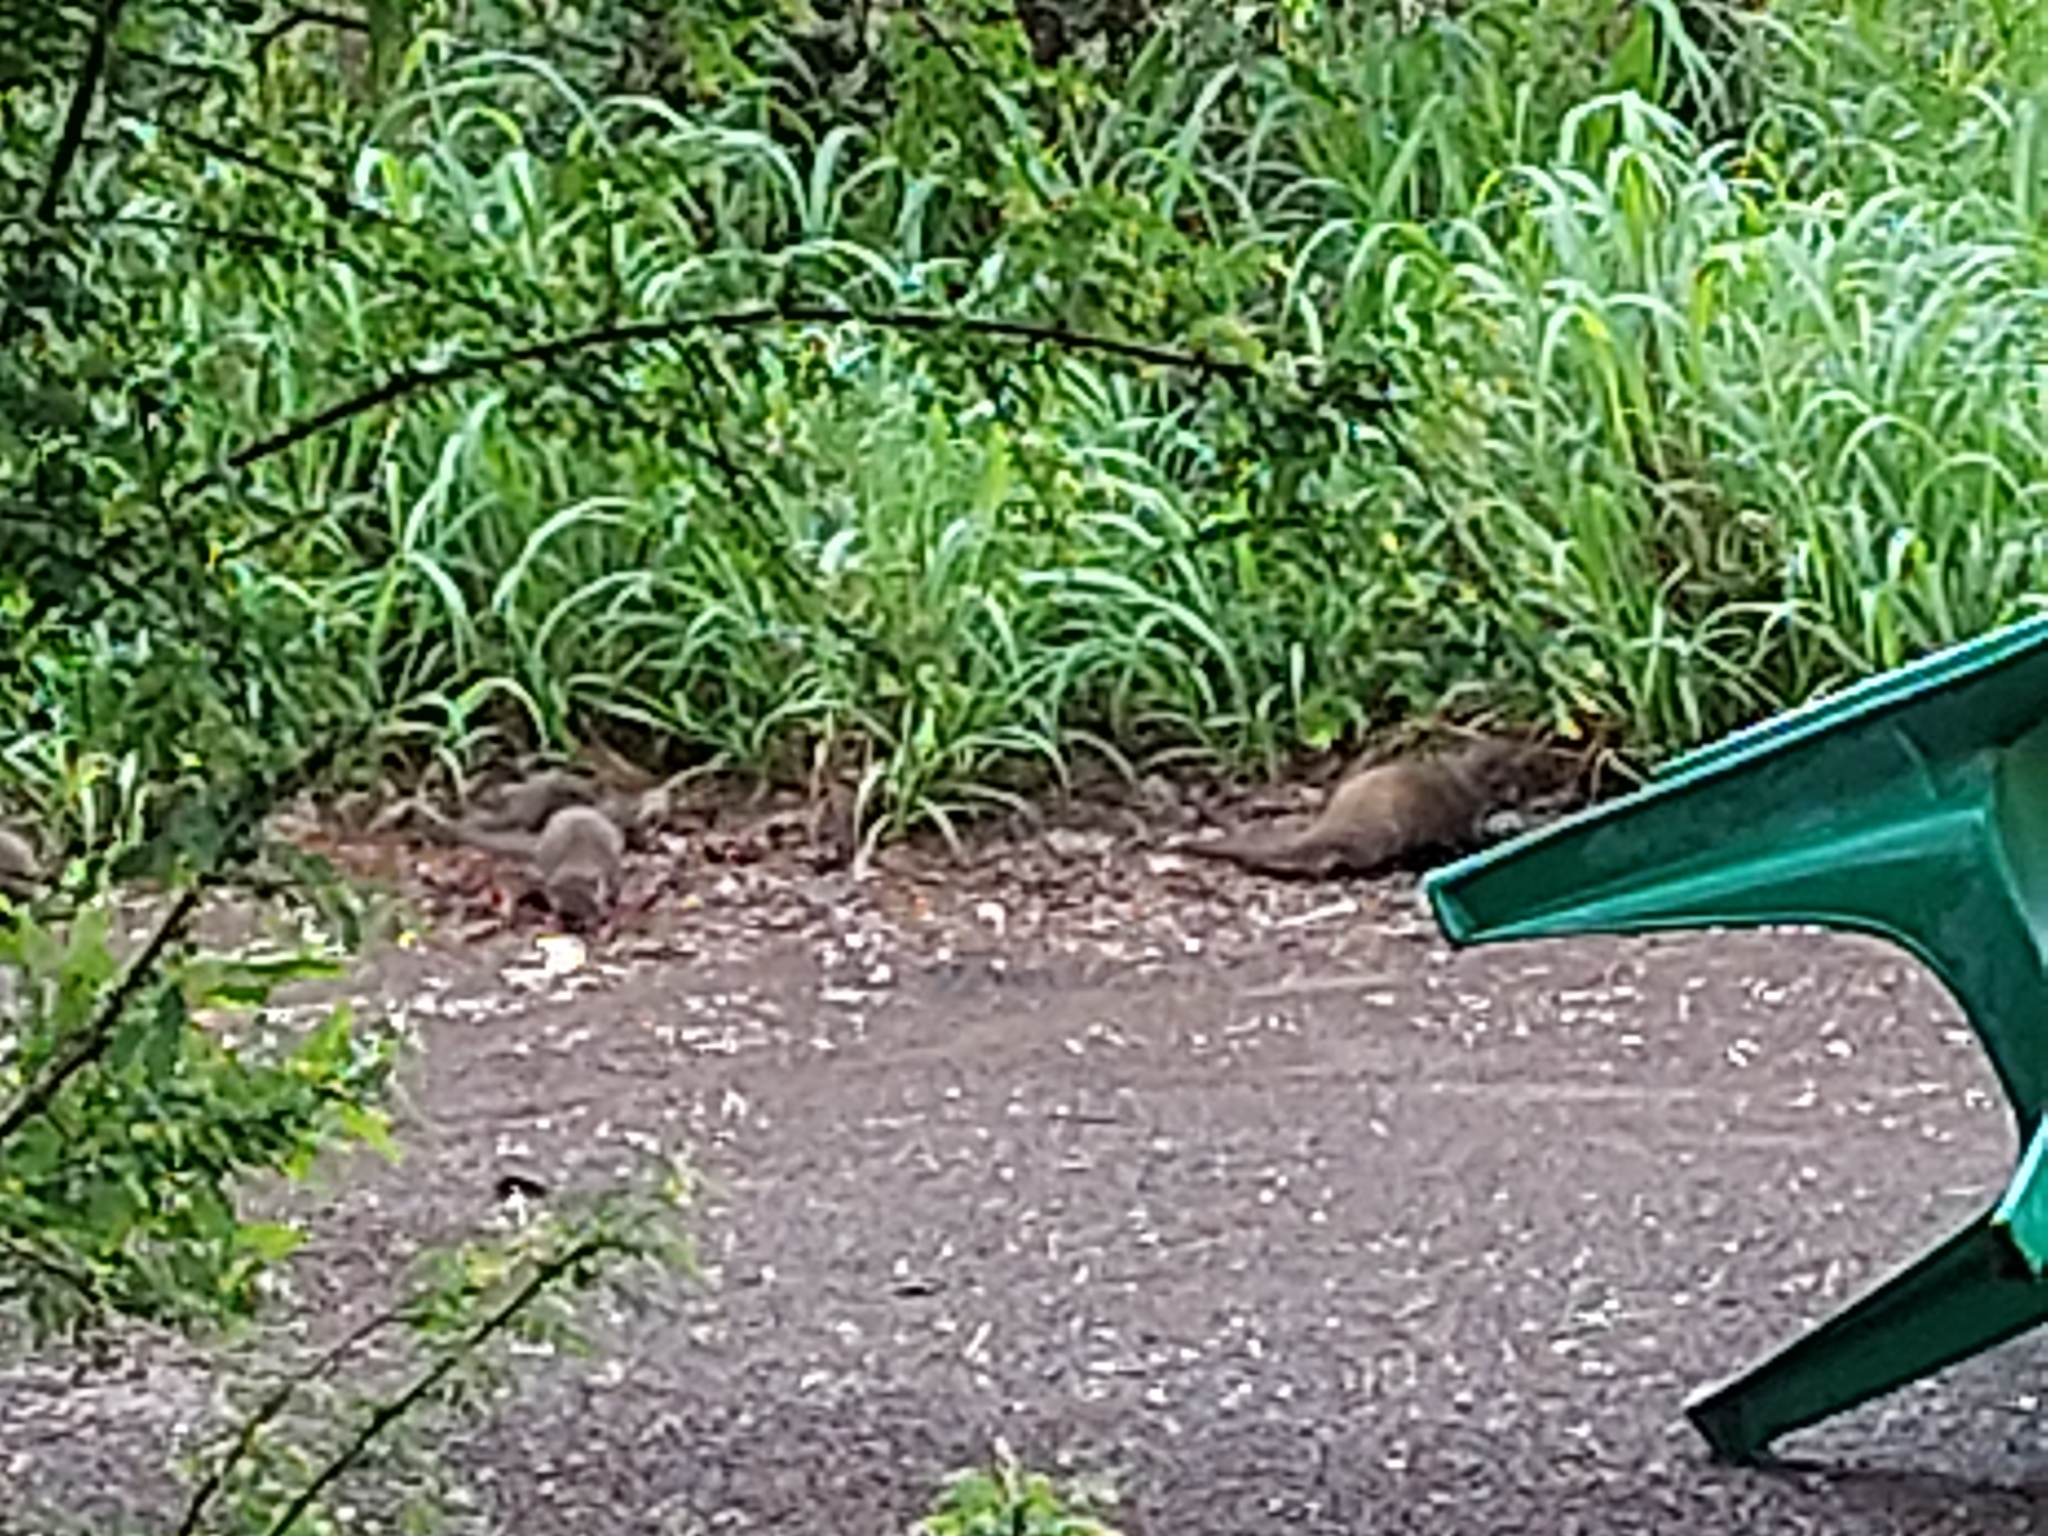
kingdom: Animalia
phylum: Chordata
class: Mammalia
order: Carnivora
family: Herpestidae
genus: Mungos
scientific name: Mungos mungo
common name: Banded mongoose
